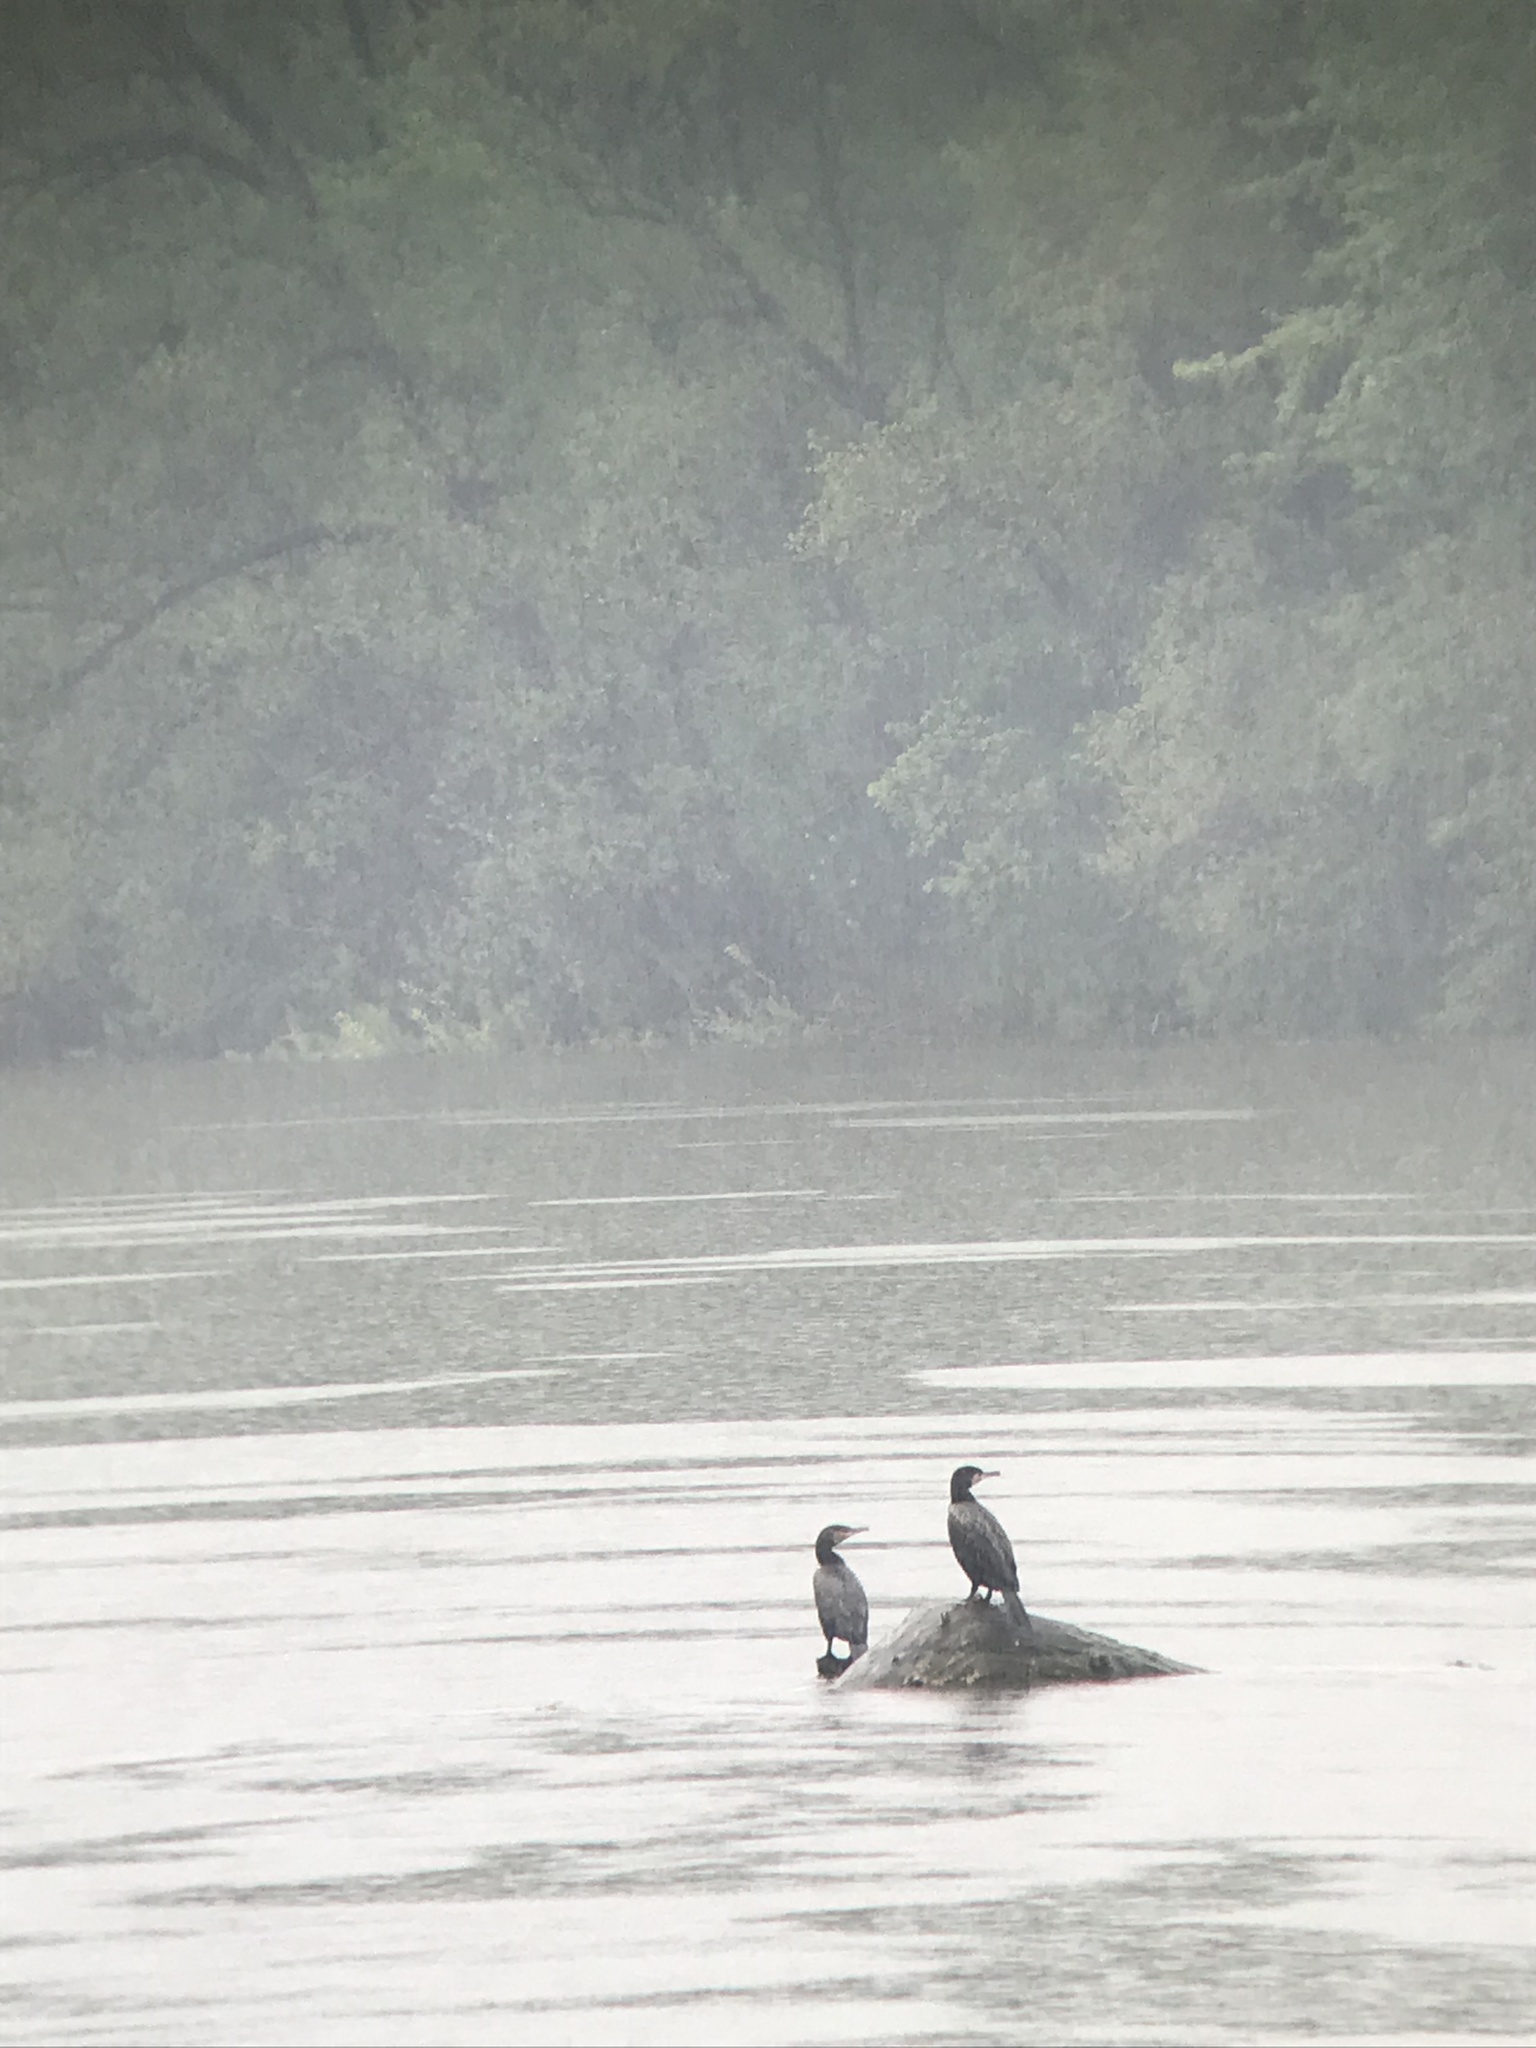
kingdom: Animalia
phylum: Chordata
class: Aves
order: Suliformes
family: Phalacrocoracidae
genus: Phalacrocorax
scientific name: Phalacrocorax carbo
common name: Great cormorant
